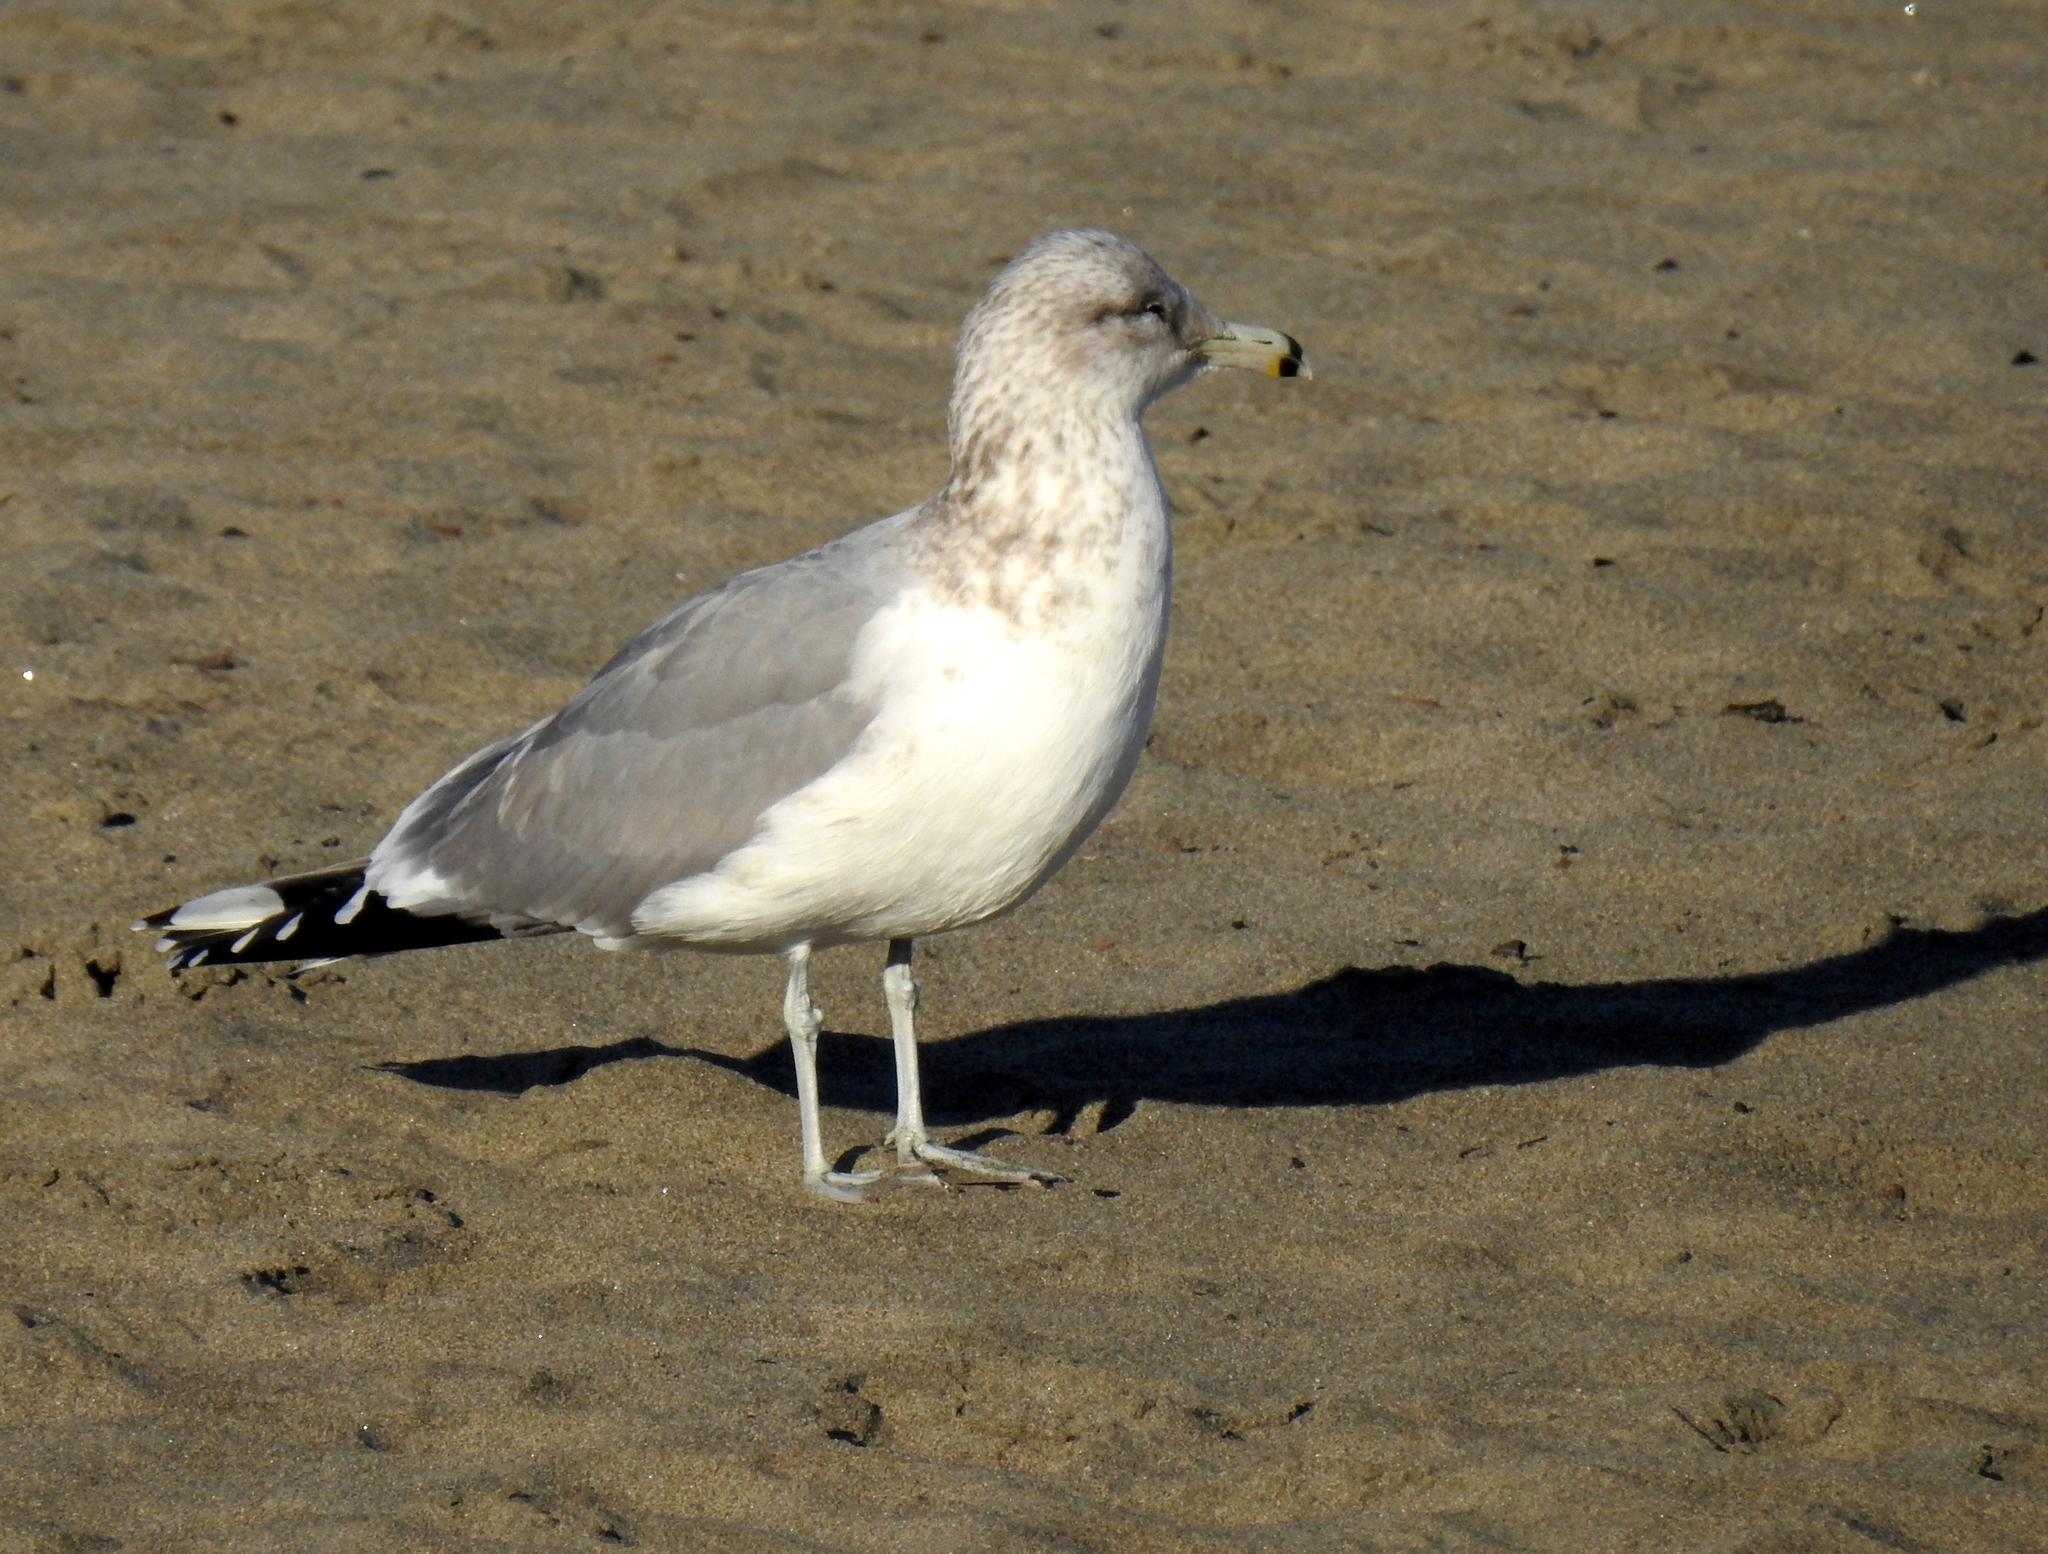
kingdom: Animalia
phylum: Chordata
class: Aves
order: Charadriiformes
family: Laridae
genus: Larus
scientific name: Larus californicus
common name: California gull
